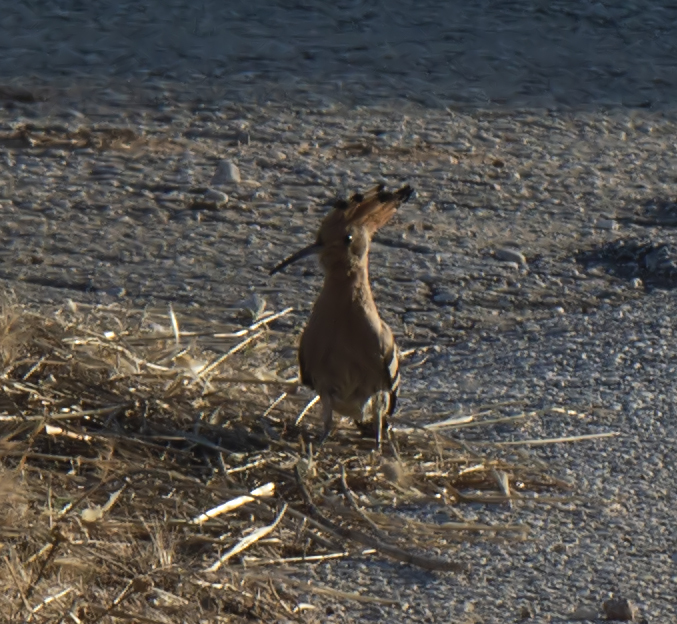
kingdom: Animalia
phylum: Chordata
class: Aves
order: Bucerotiformes
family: Upupidae
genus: Upupa
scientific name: Upupa epops
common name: Eurasian hoopoe
